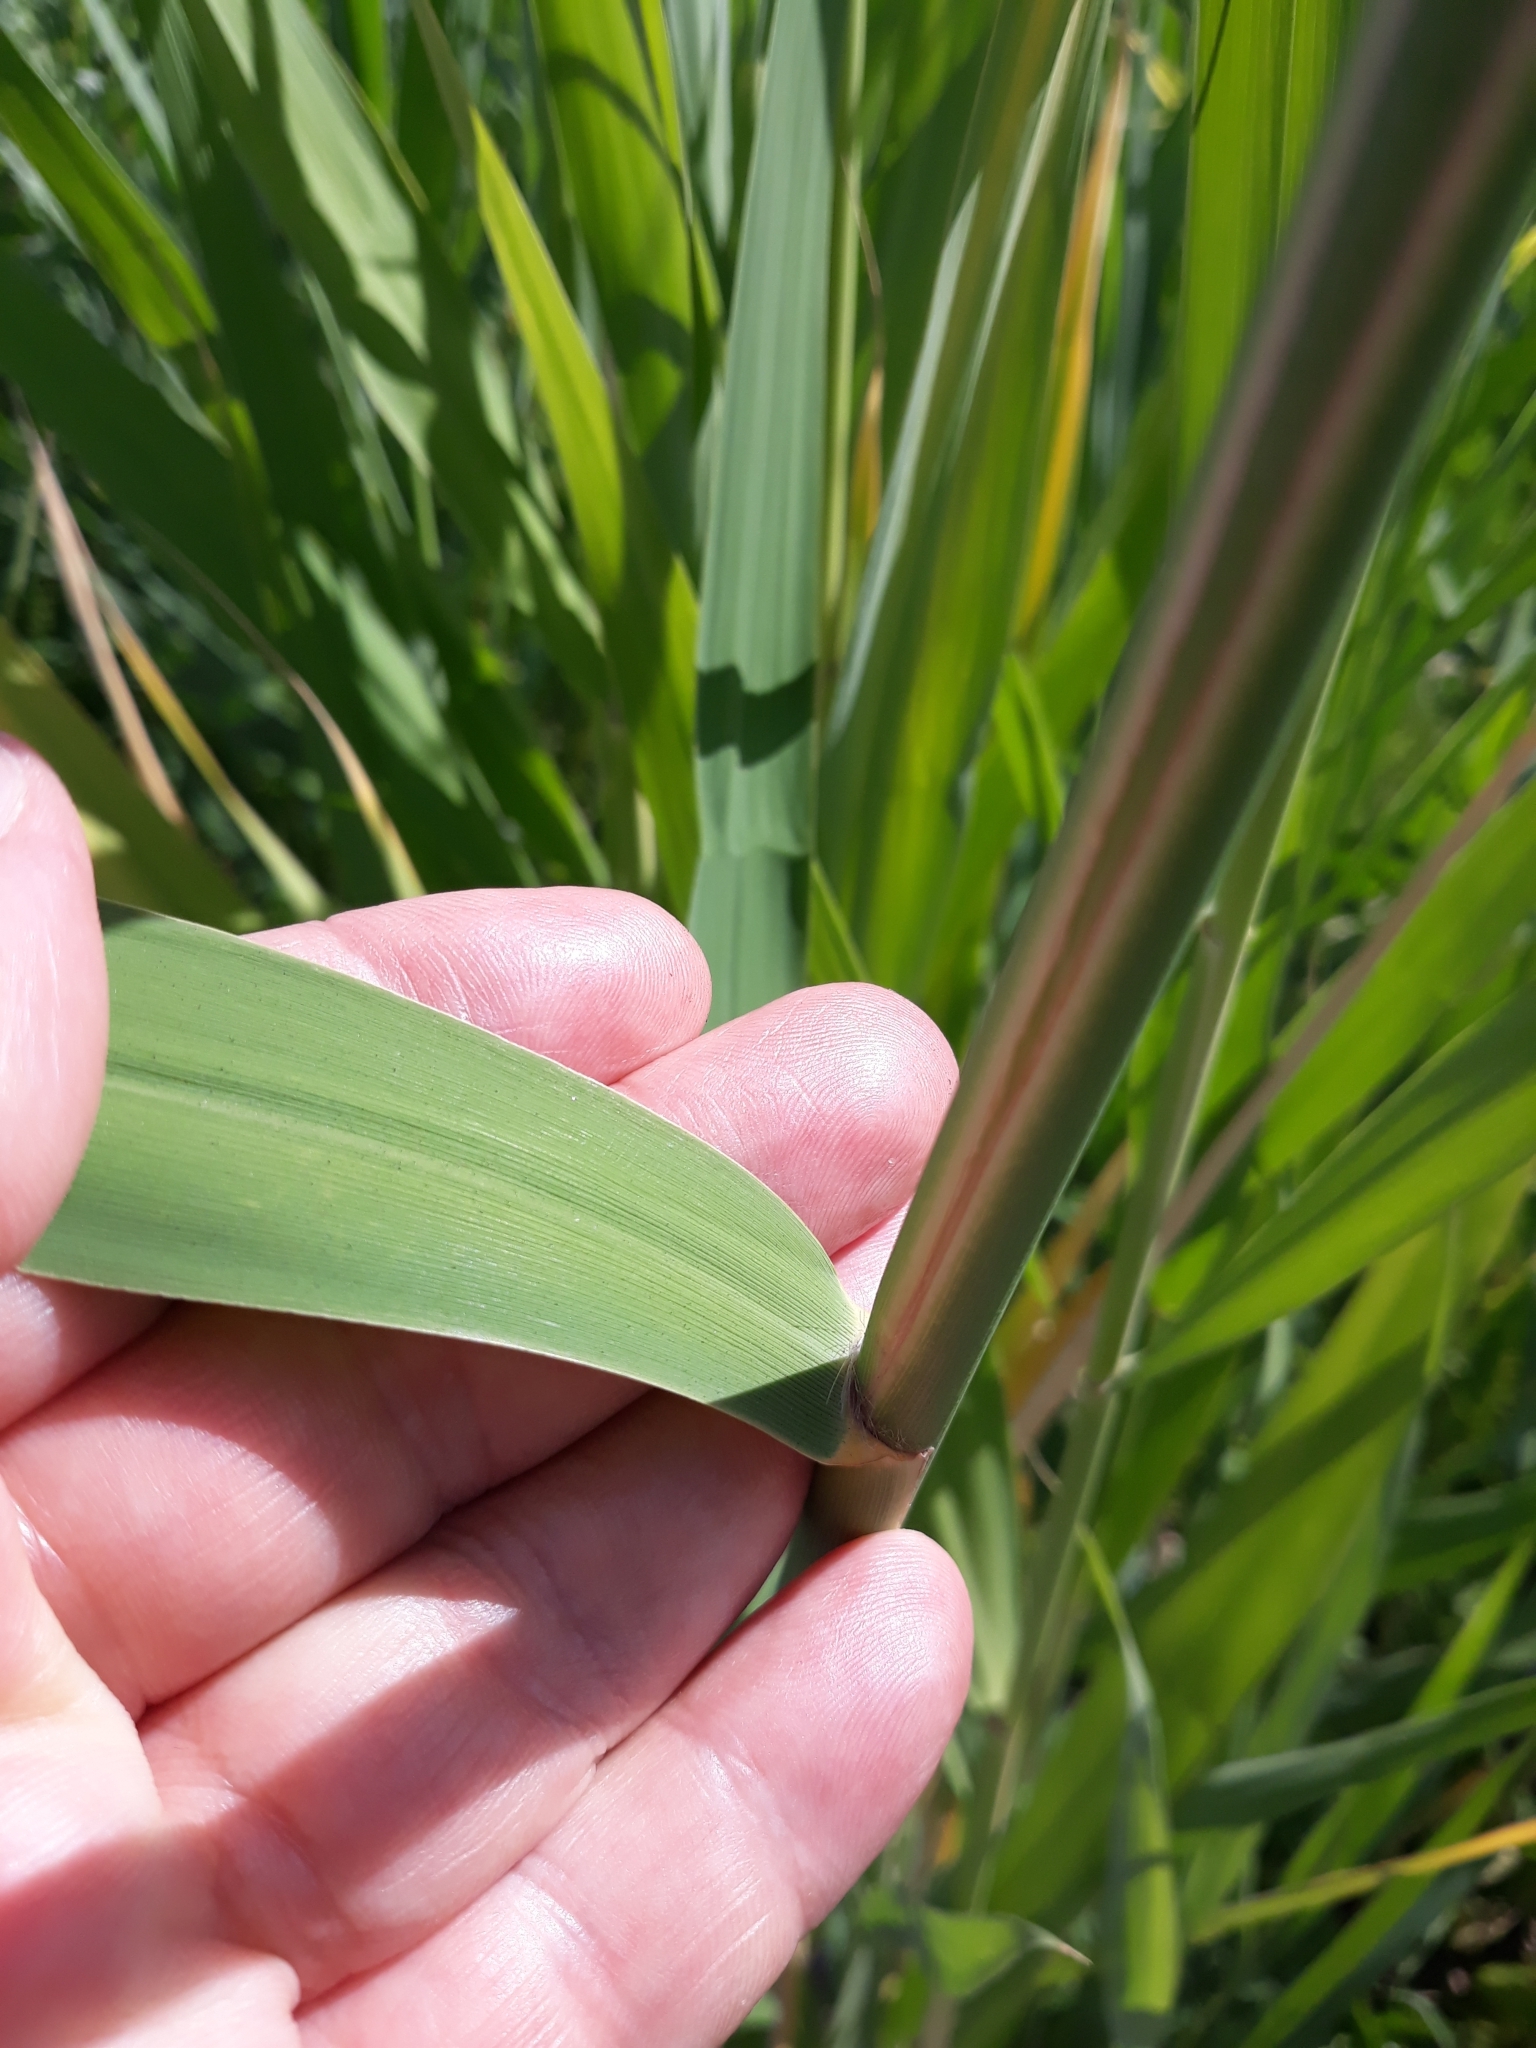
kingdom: Plantae
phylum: Tracheophyta
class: Liliopsida
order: Poales
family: Poaceae
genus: Phragmites
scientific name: Phragmites australis
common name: Common reed
